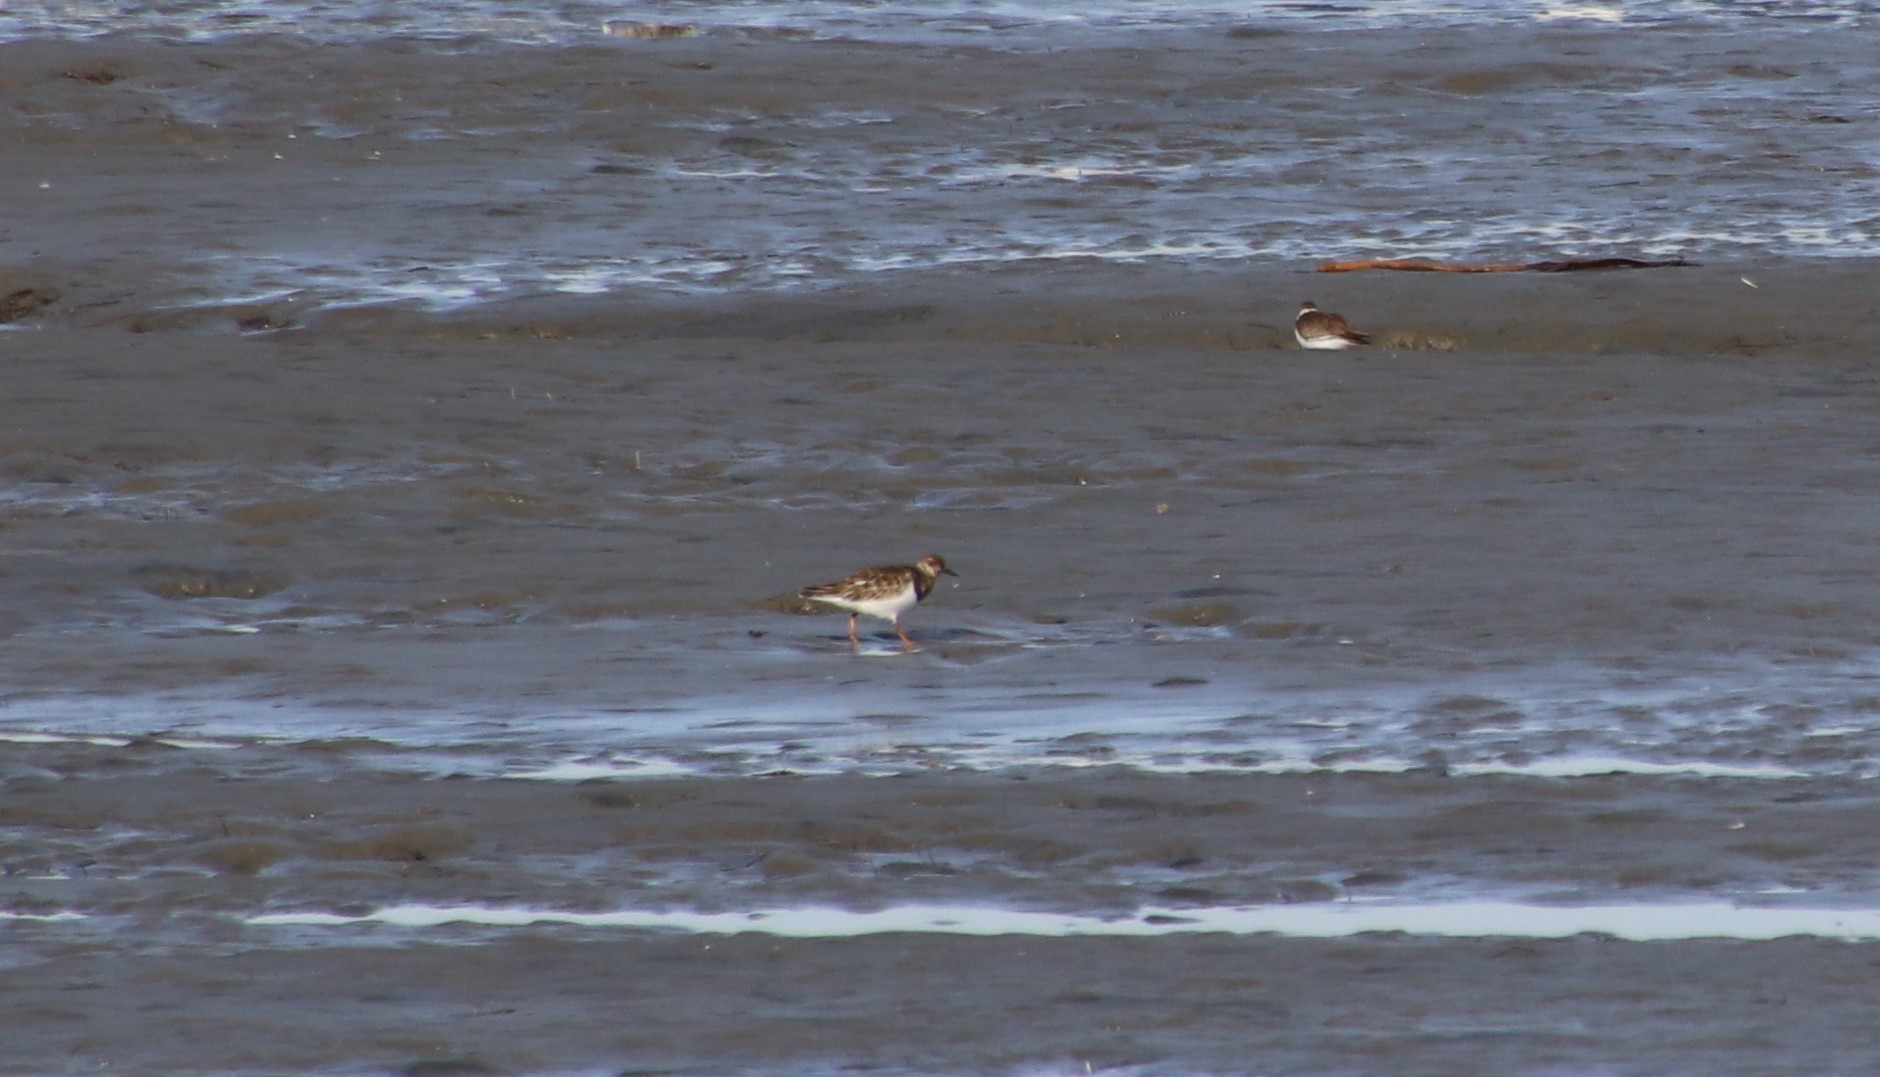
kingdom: Animalia
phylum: Chordata
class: Aves
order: Charadriiformes
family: Scolopacidae
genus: Arenaria
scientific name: Arenaria interpres
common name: Ruddy turnstone
